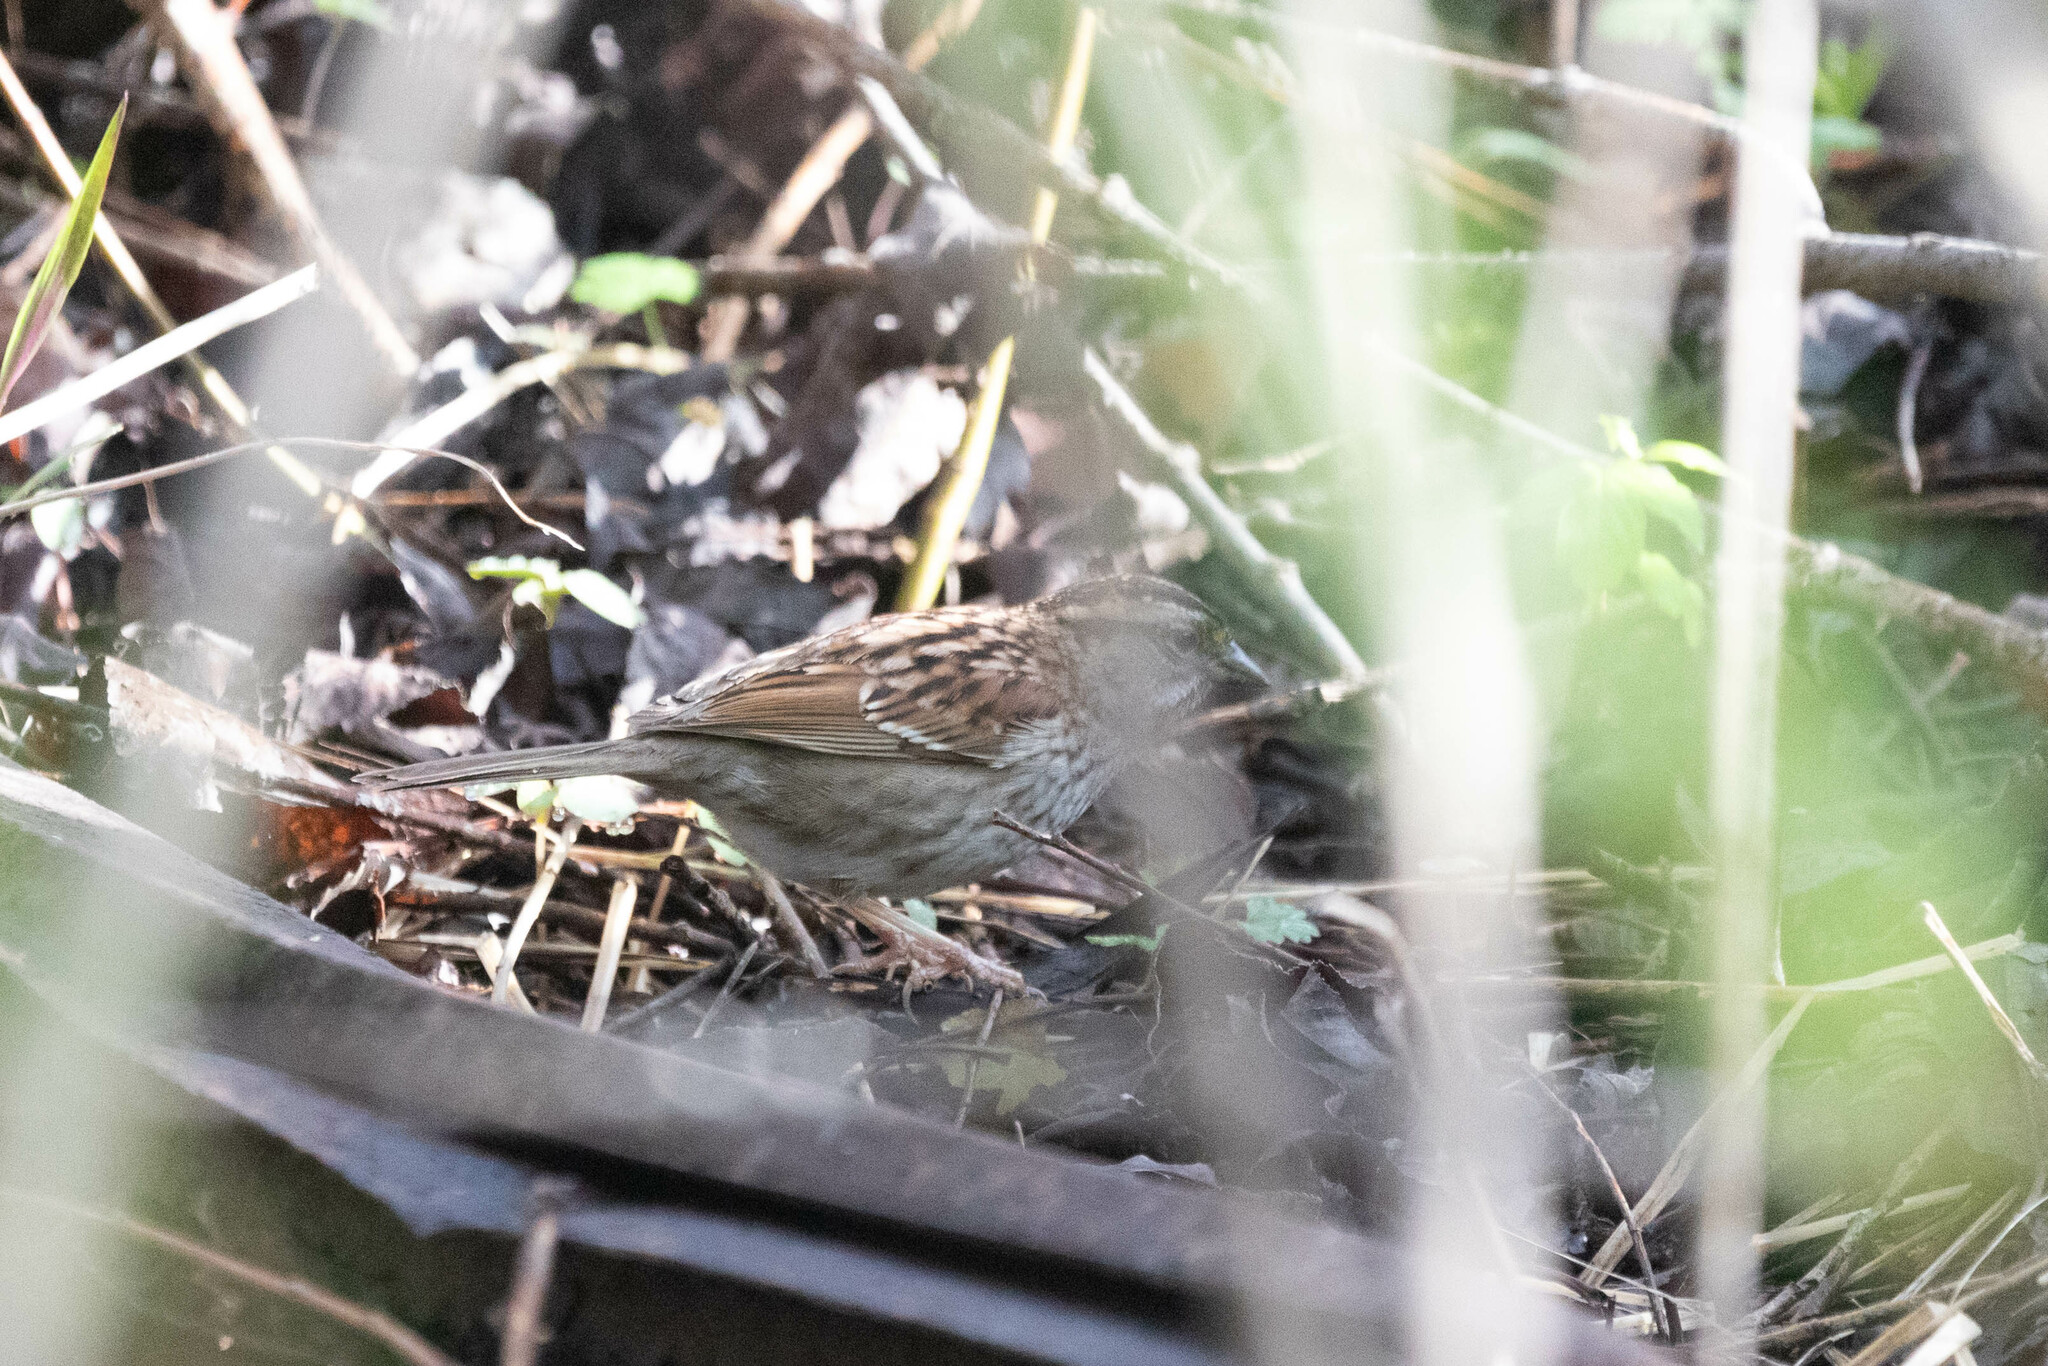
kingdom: Animalia
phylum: Chordata
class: Aves
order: Passeriformes
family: Passerellidae
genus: Zonotrichia
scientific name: Zonotrichia albicollis
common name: White-throated sparrow
